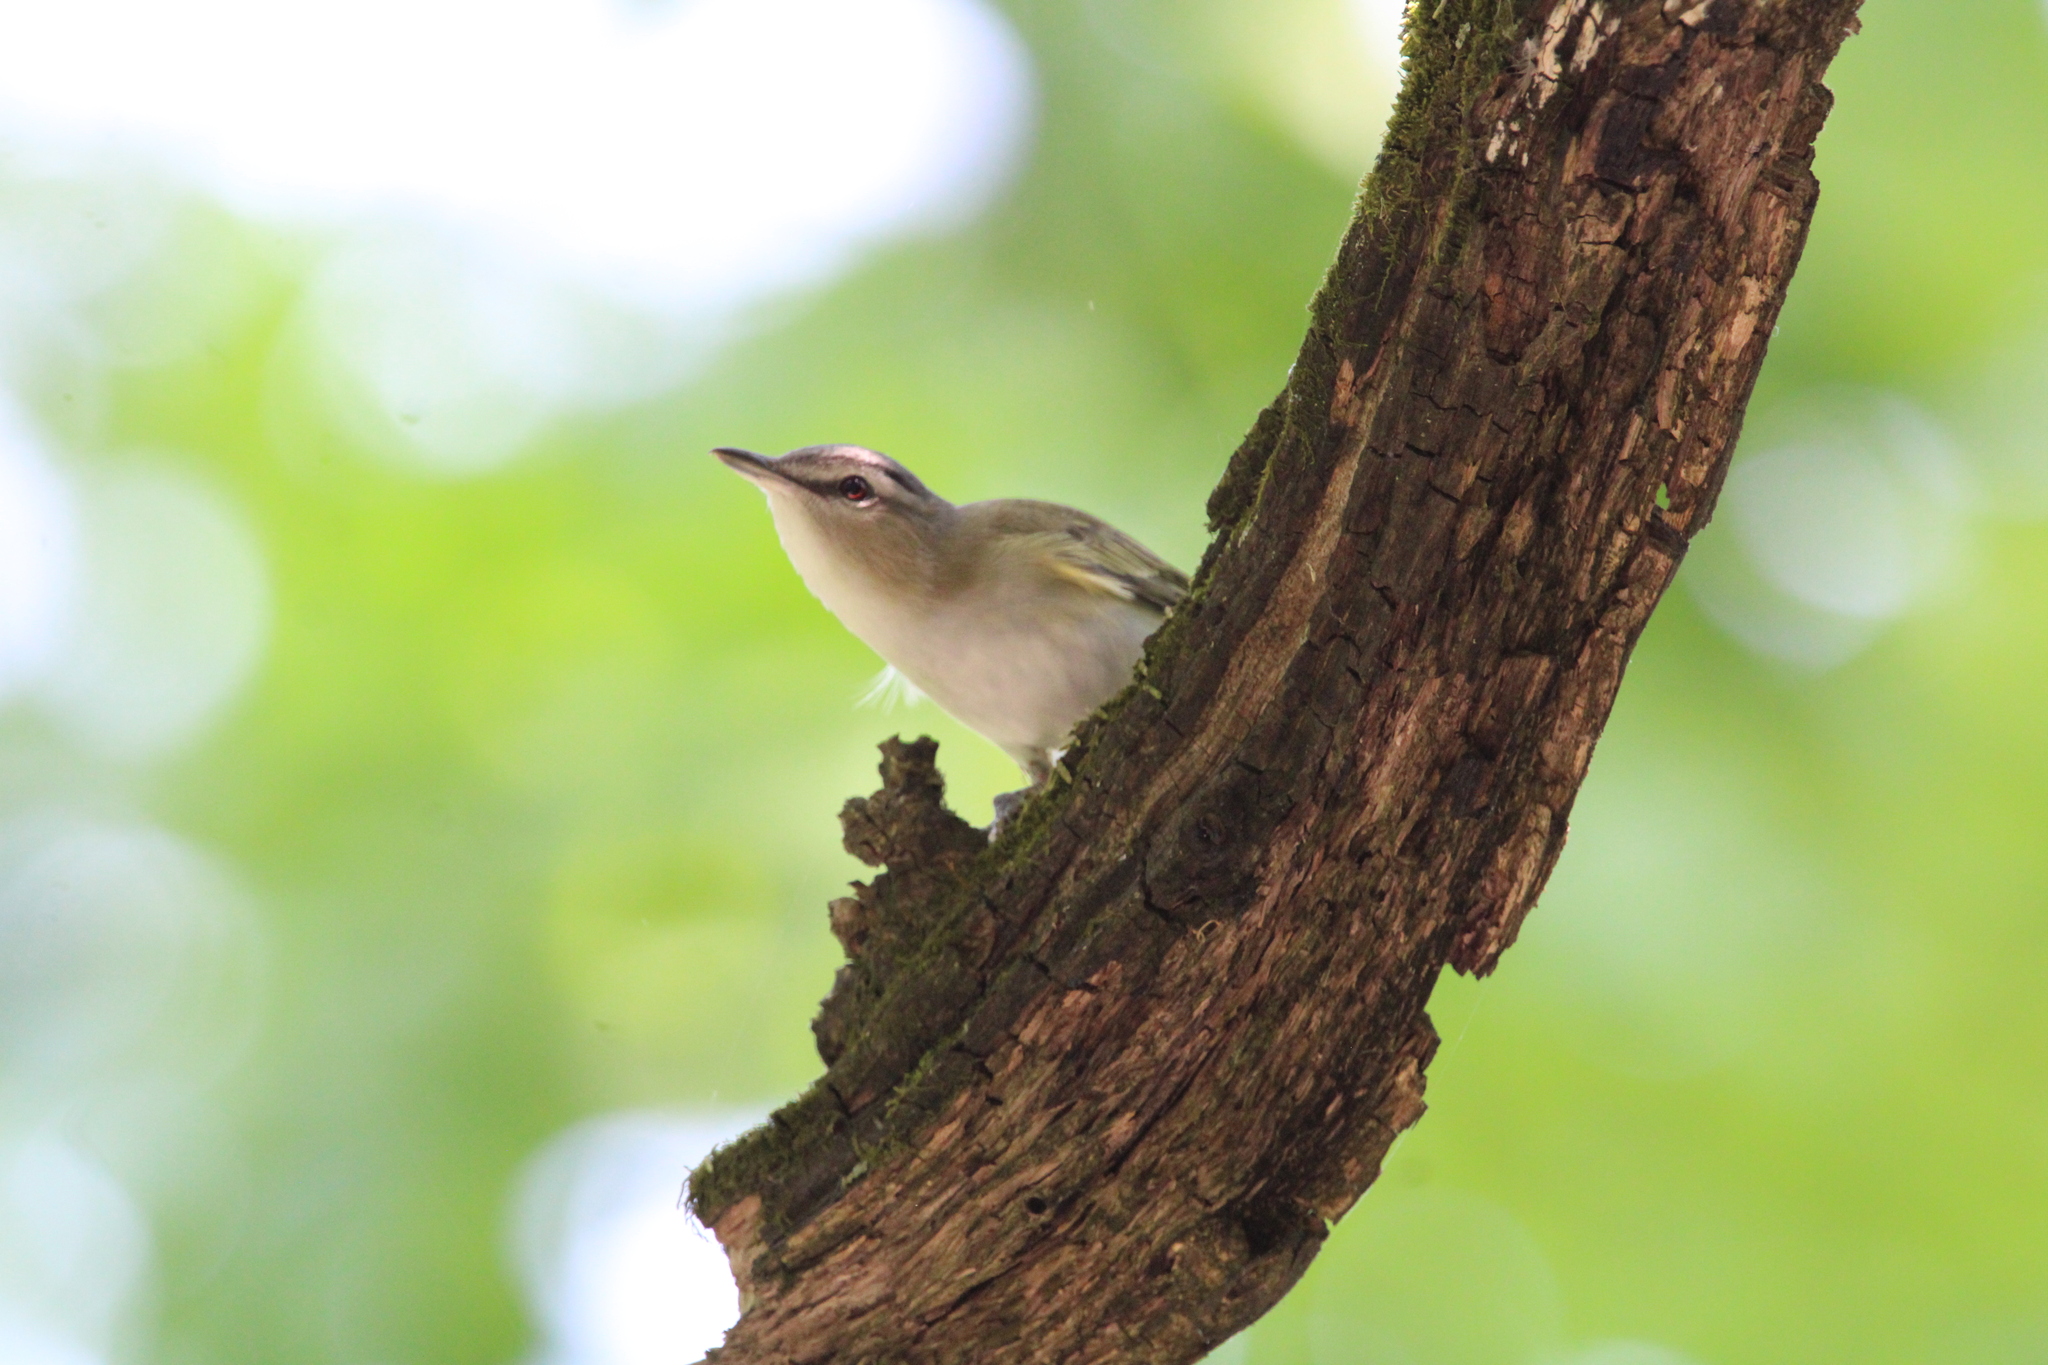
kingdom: Animalia
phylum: Chordata
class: Aves
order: Passeriformes
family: Vireonidae
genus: Vireo
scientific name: Vireo olivaceus
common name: Red-eyed vireo
